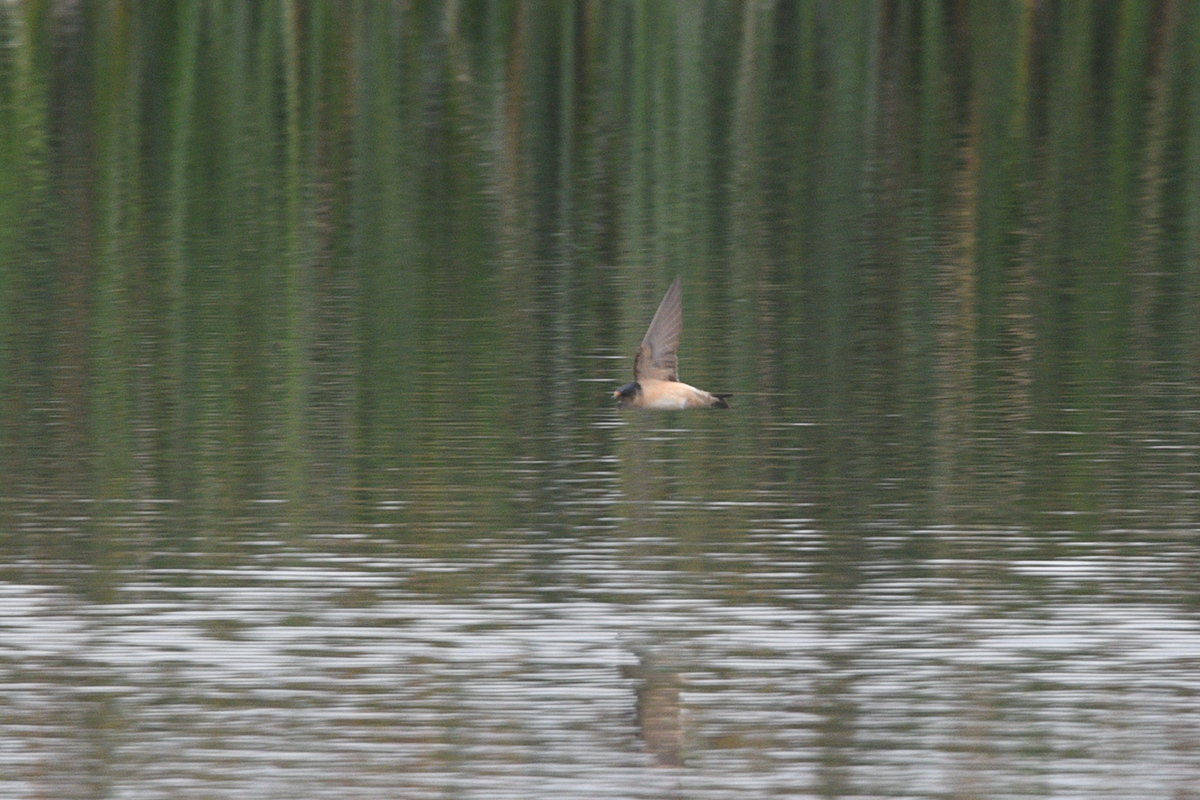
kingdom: Animalia
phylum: Chordata
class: Aves
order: Passeriformes
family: Hirundinidae
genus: Petrochelidon
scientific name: Petrochelidon nigricans
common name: Tree martin
